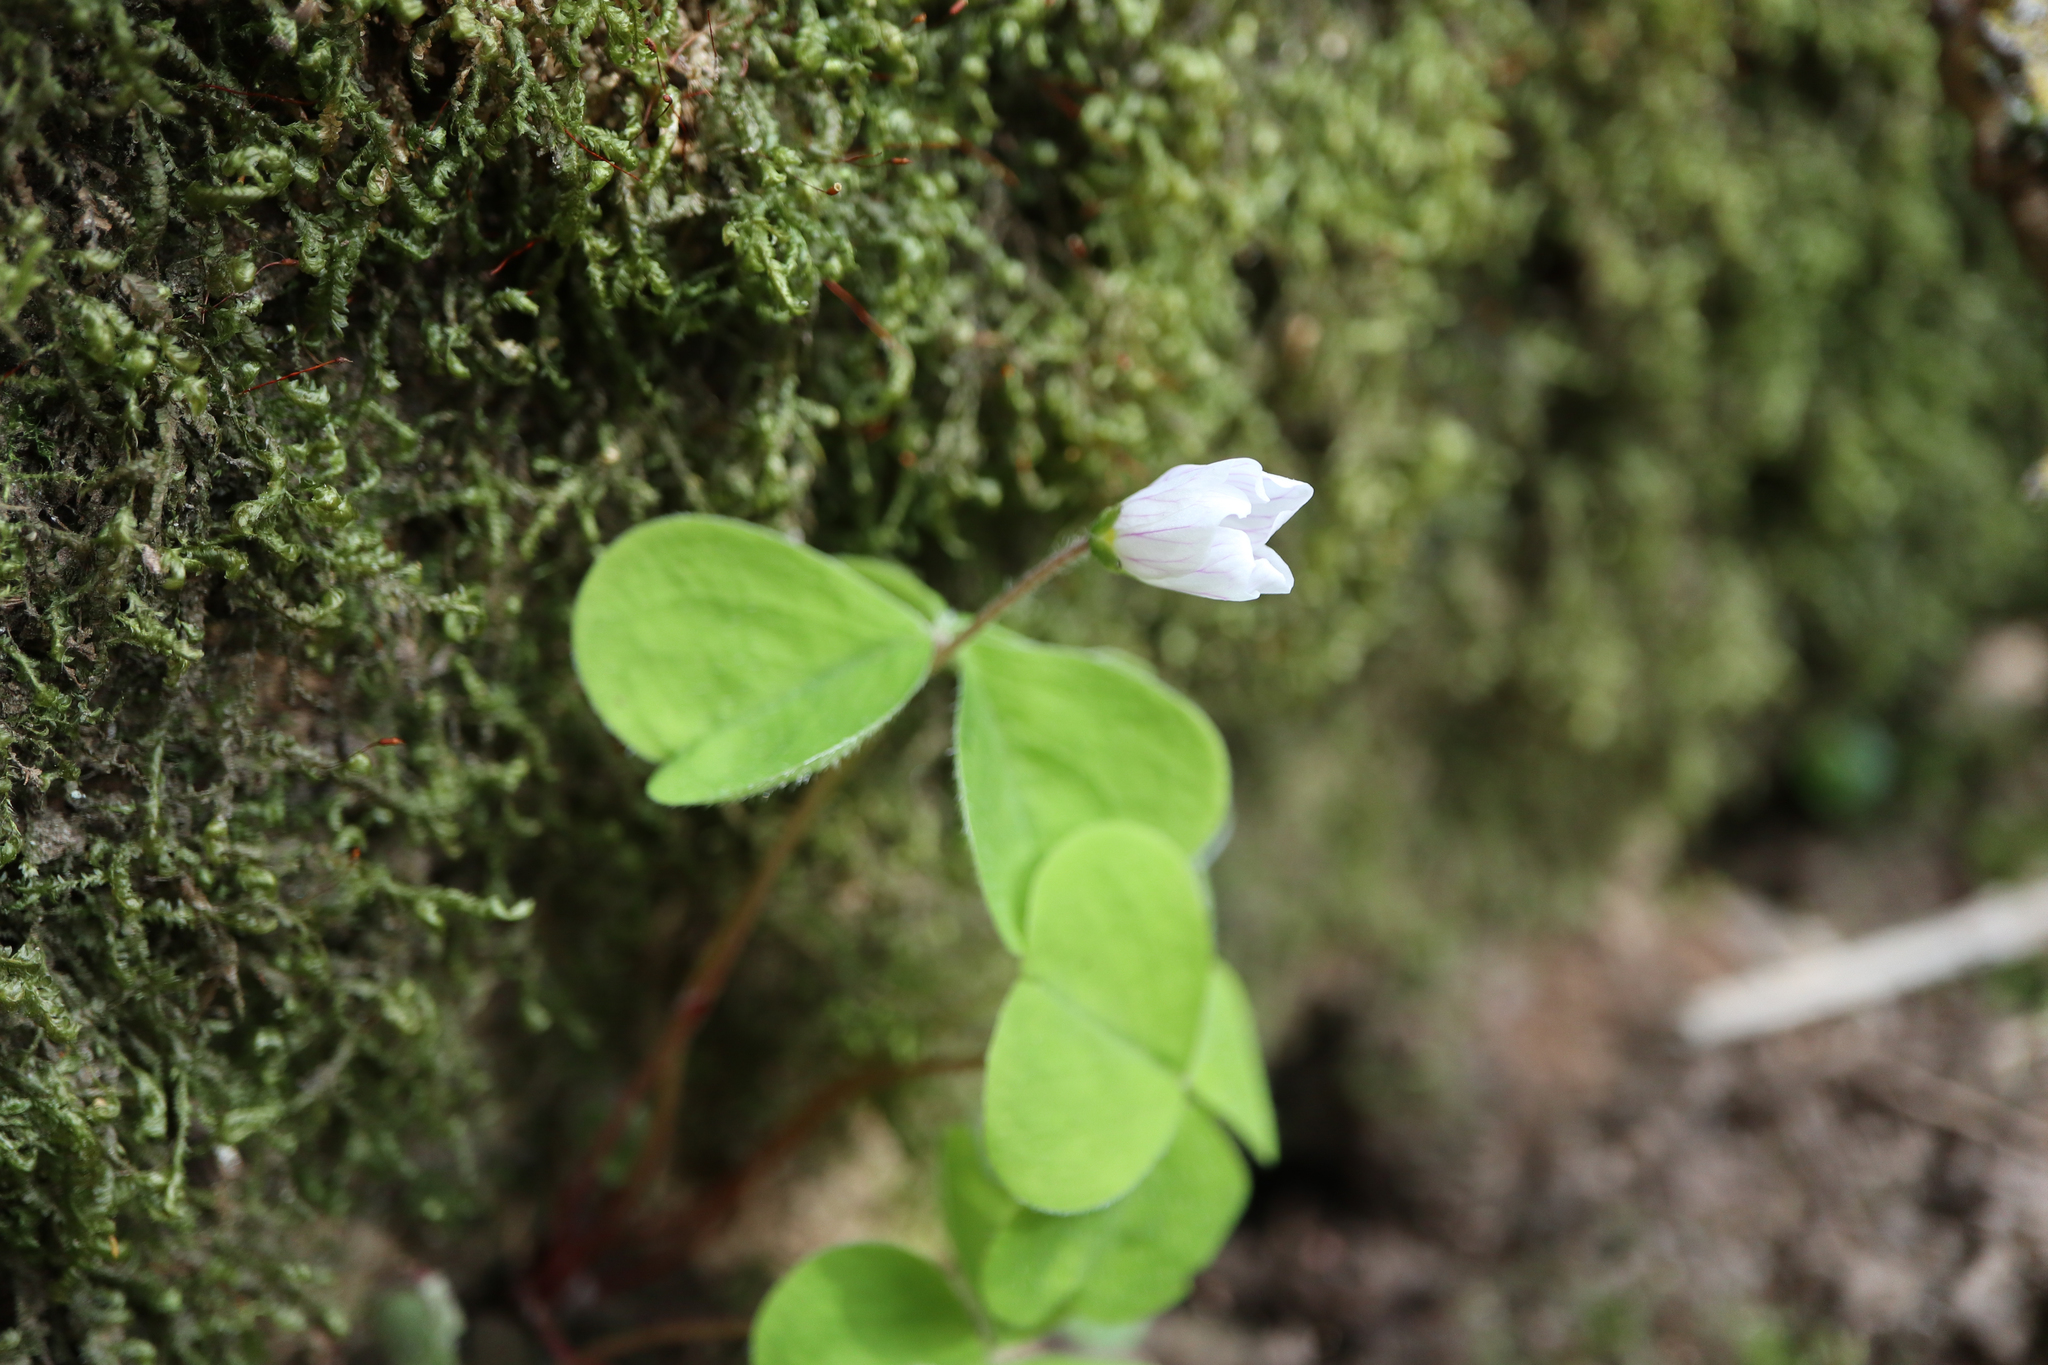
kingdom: Plantae
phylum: Tracheophyta
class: Magnoliopsida
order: Oxalidales
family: Oxalidaceae
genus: Oxalis
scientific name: Oxalis acetosella
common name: Wood-sorrel
